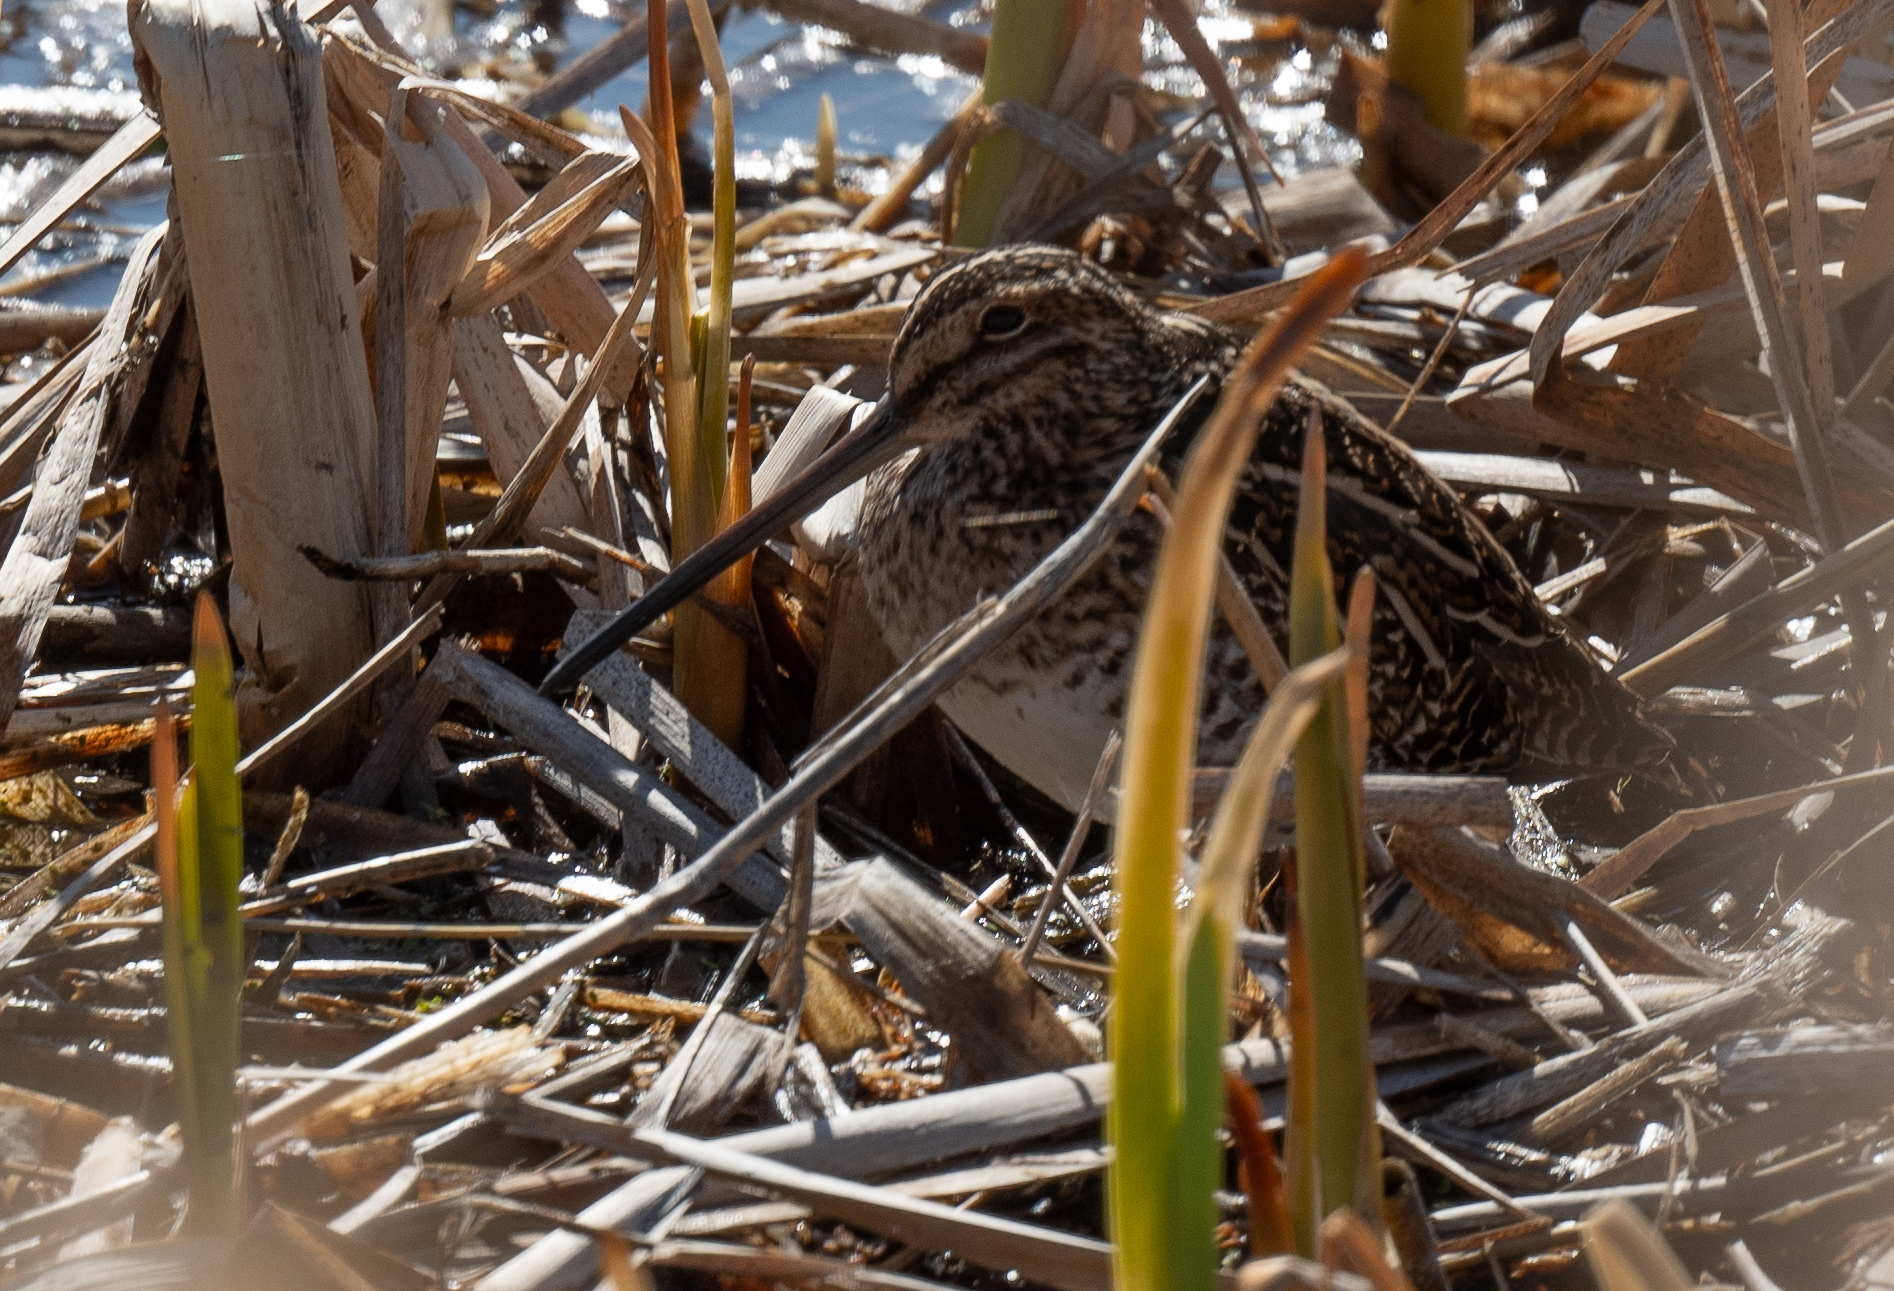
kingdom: Animalia
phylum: Chordata
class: Aves
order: Charadriiformes
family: Scolopacidae
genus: Gallinago
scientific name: Gallinago delicata
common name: Wilson's snipe
